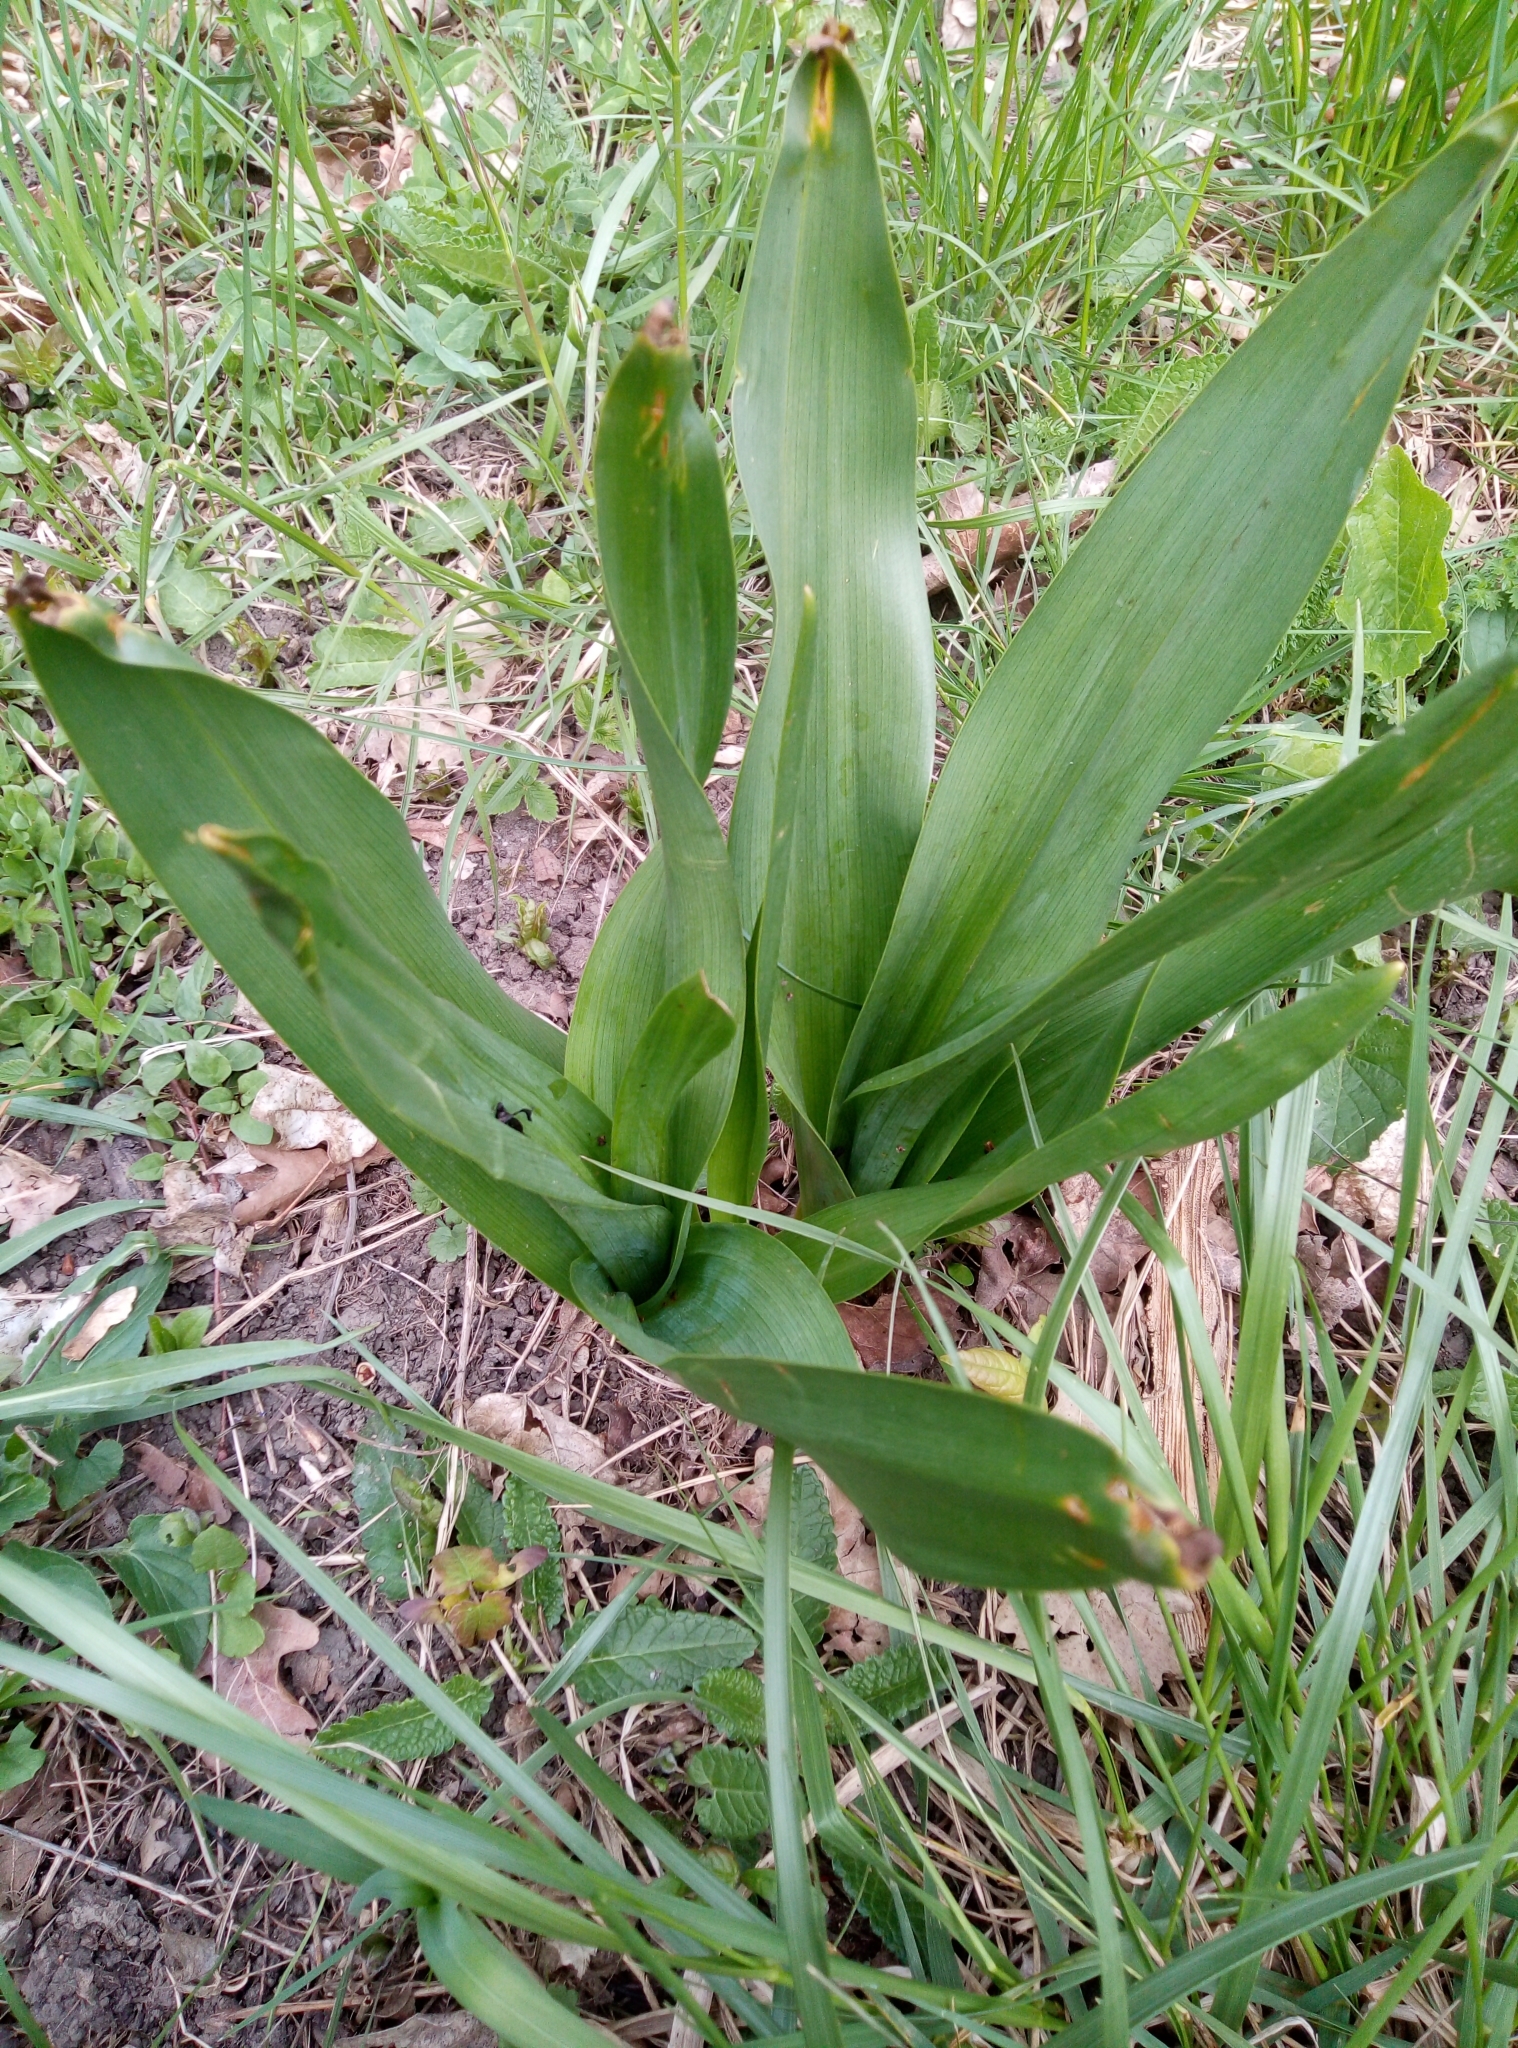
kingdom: Plantae
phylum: Tracheophyta
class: Liliopsida
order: Liliales
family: Colchicaceae
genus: Colchicum
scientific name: Colchicum autumnale
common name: Autumn crocus
